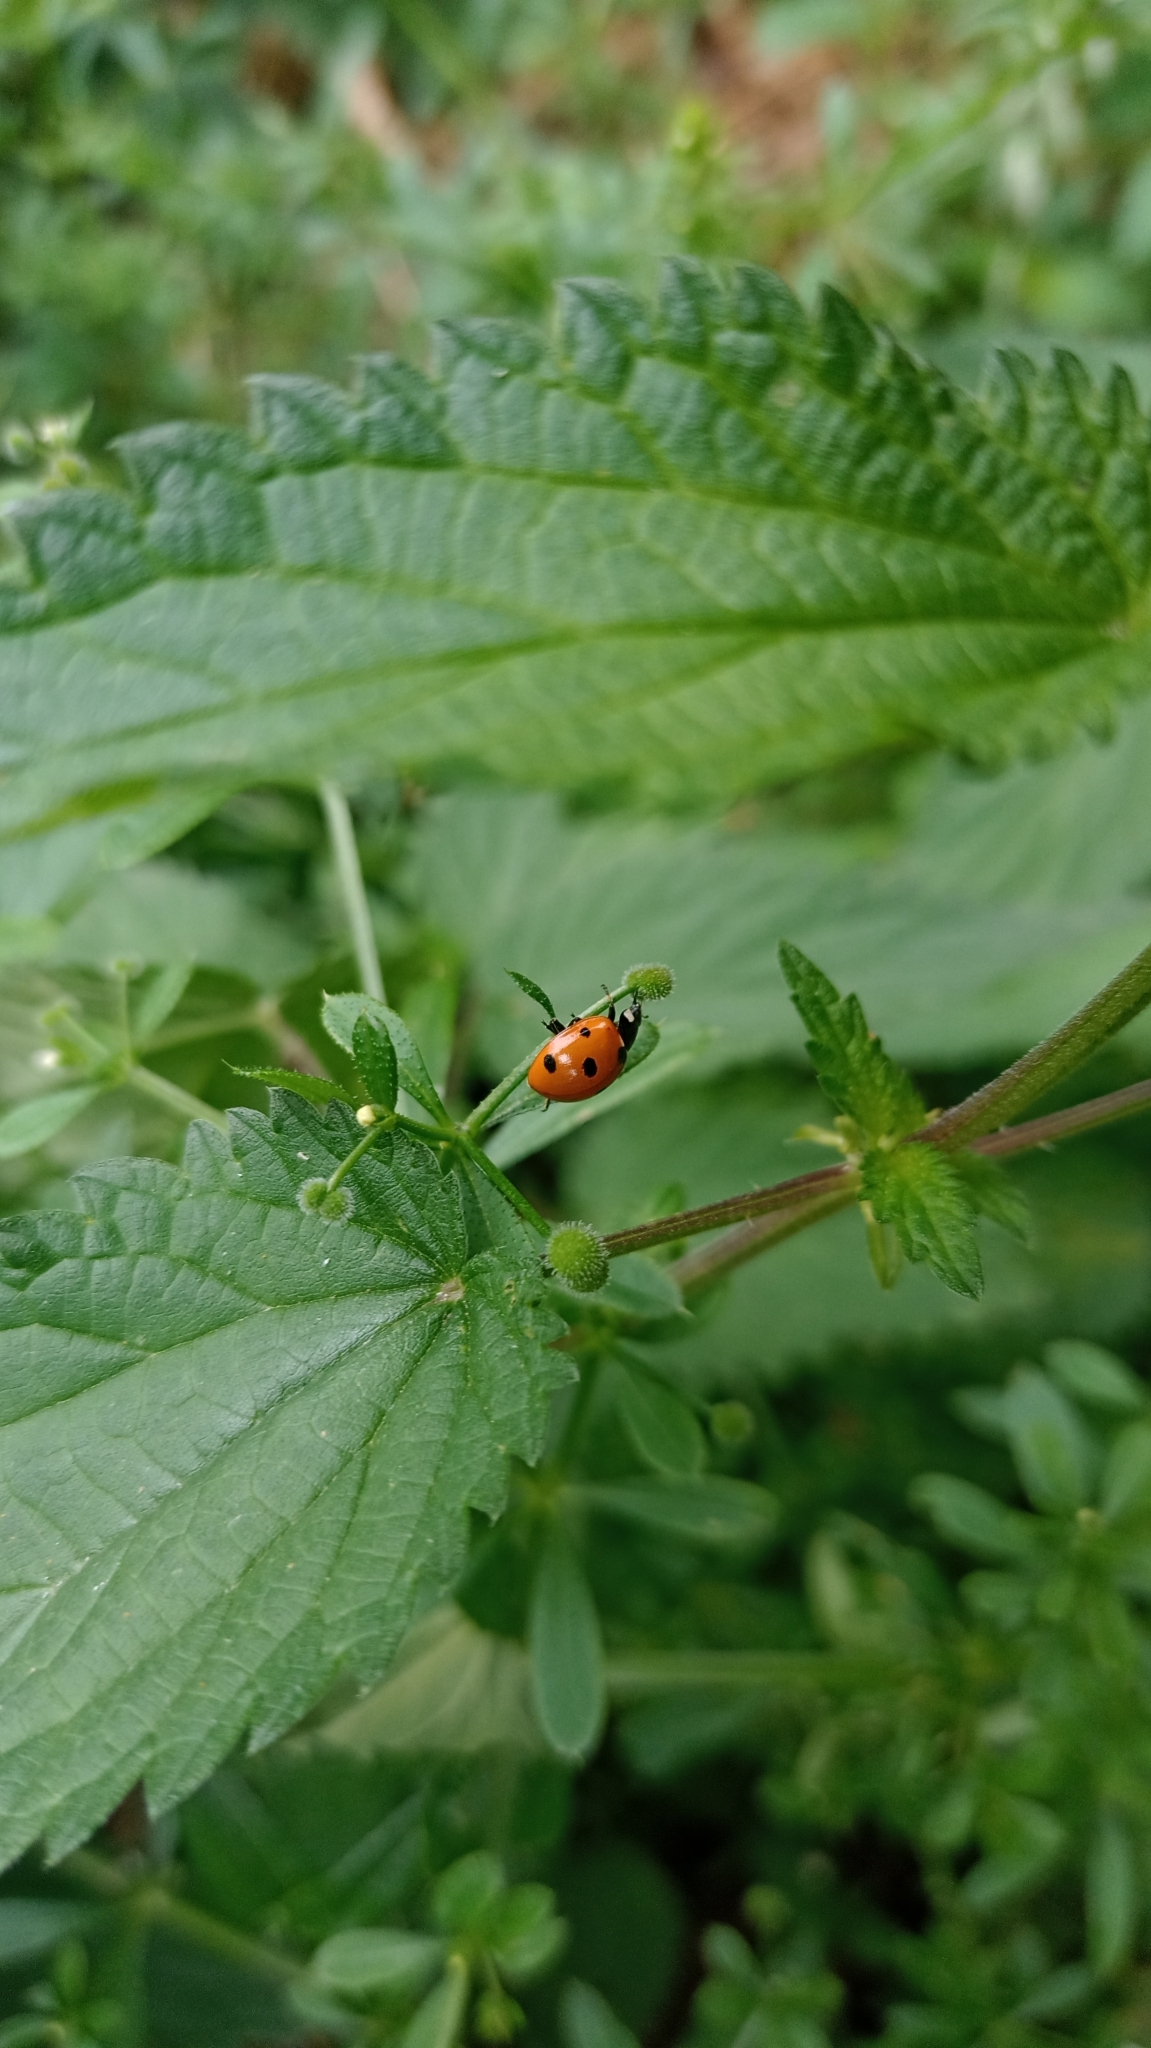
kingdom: Animalia
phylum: Arthropoda
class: Insecta
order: Coleoptera
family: Coccinellidae
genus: Coccinella
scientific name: Coccinella septempunctata
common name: Sevenspotted lady beetle
